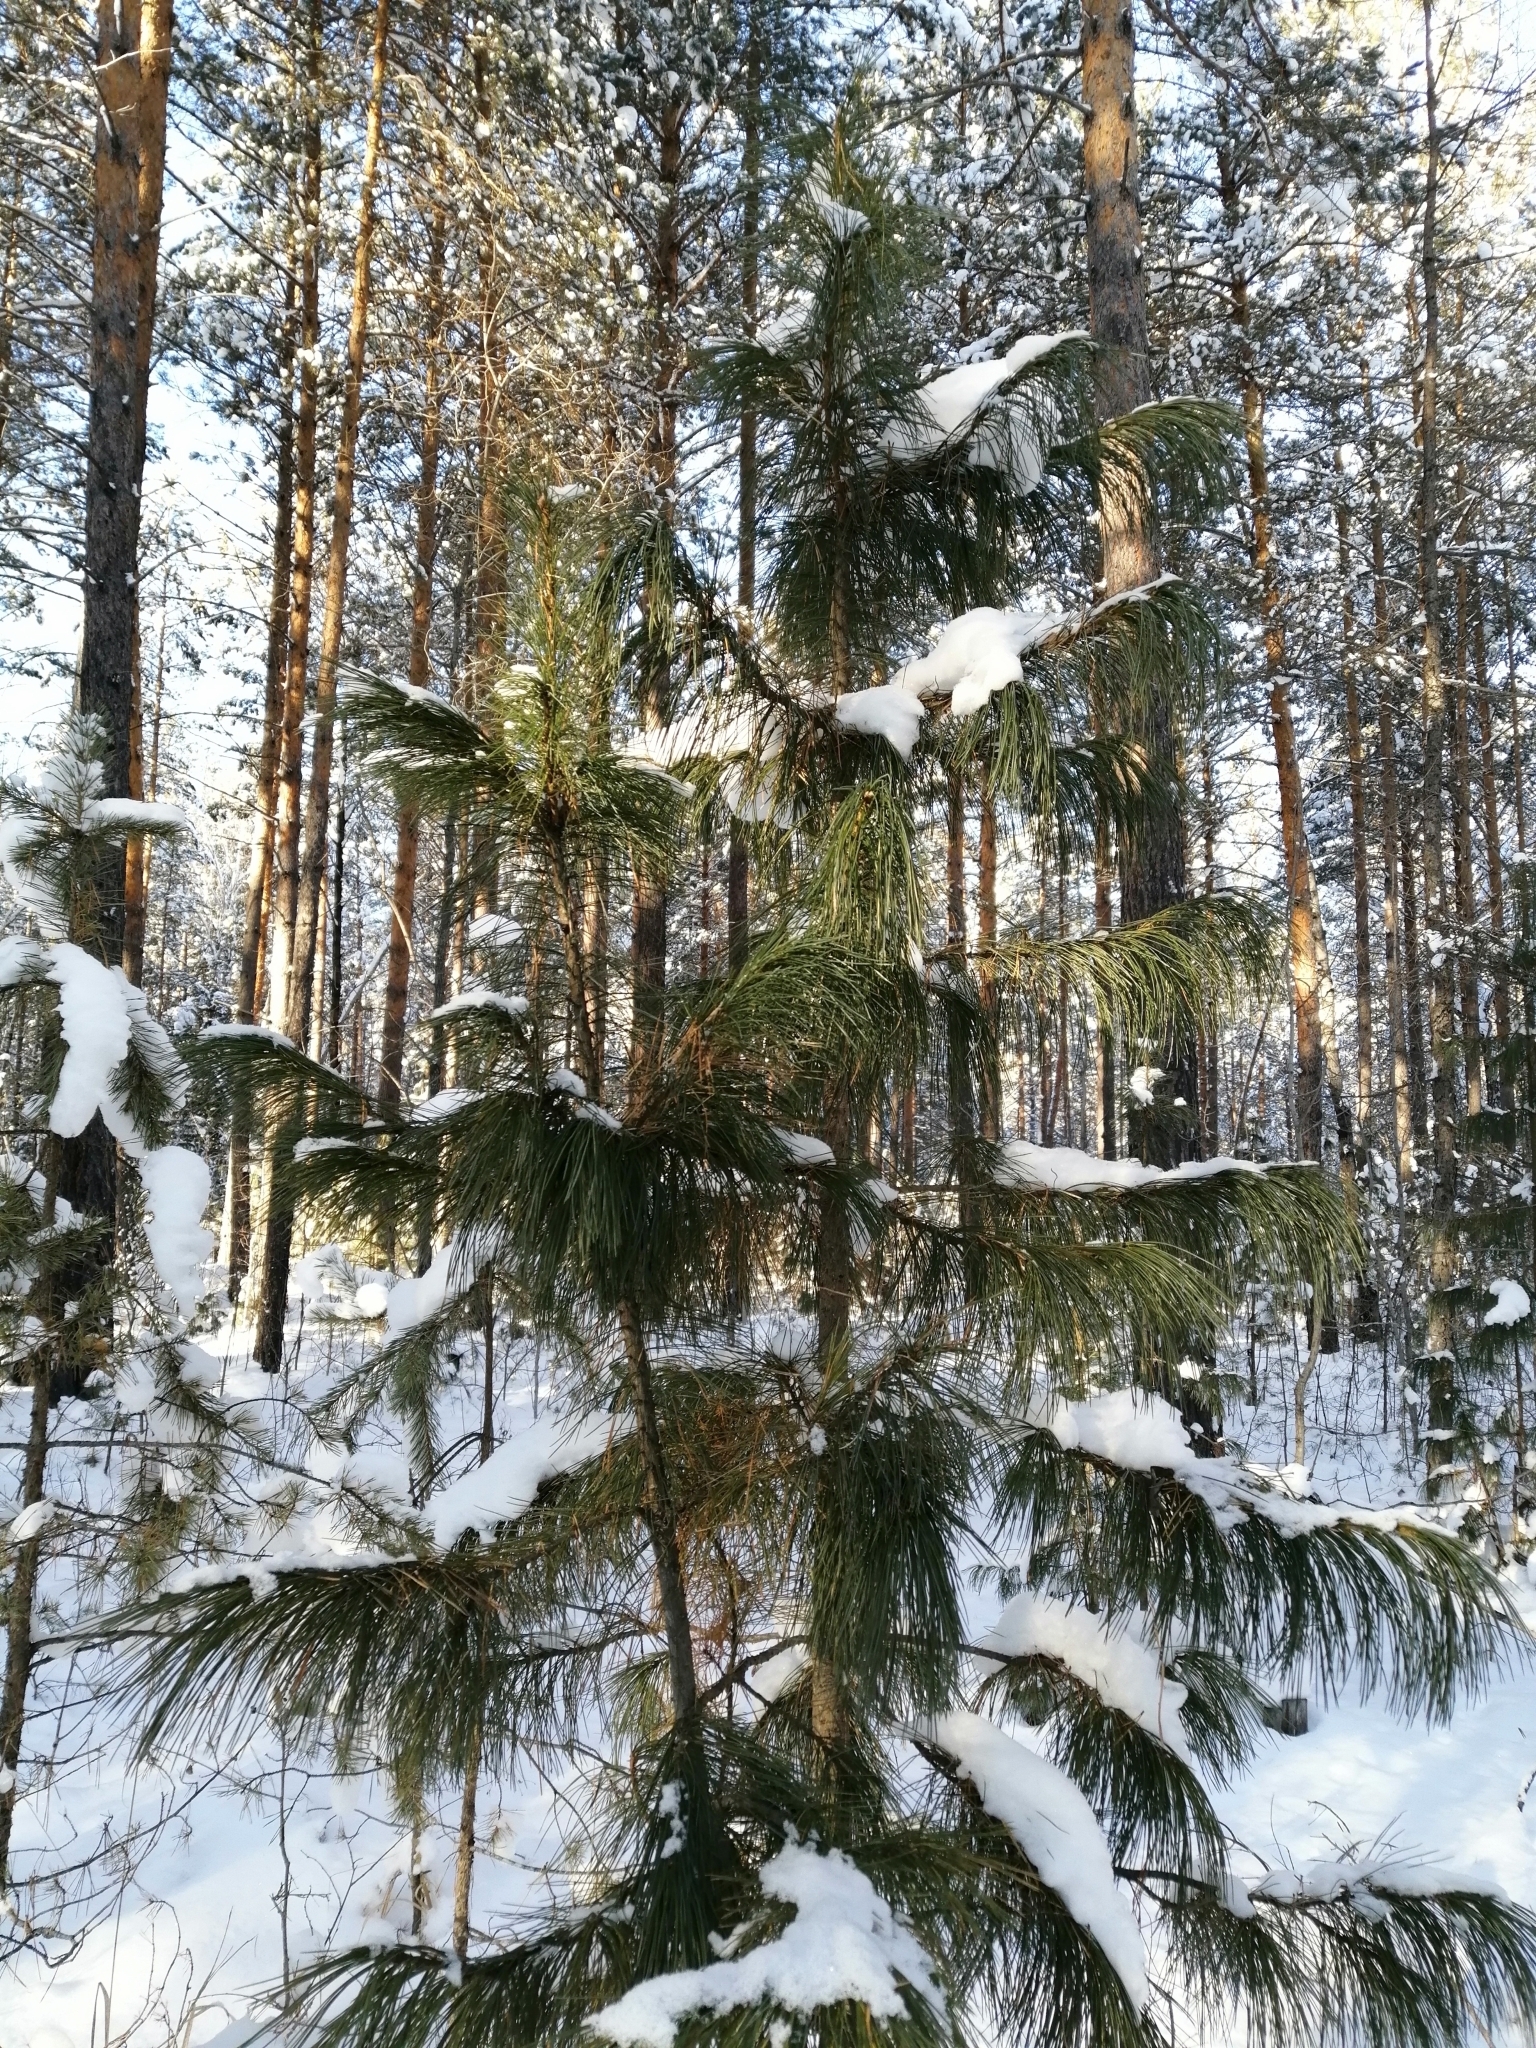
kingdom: Plantae
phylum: Tracheophyta
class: Pinopsida
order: Pinales
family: Pinaceae
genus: Pinus
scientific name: Pinus sibirica
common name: Siberian pine
